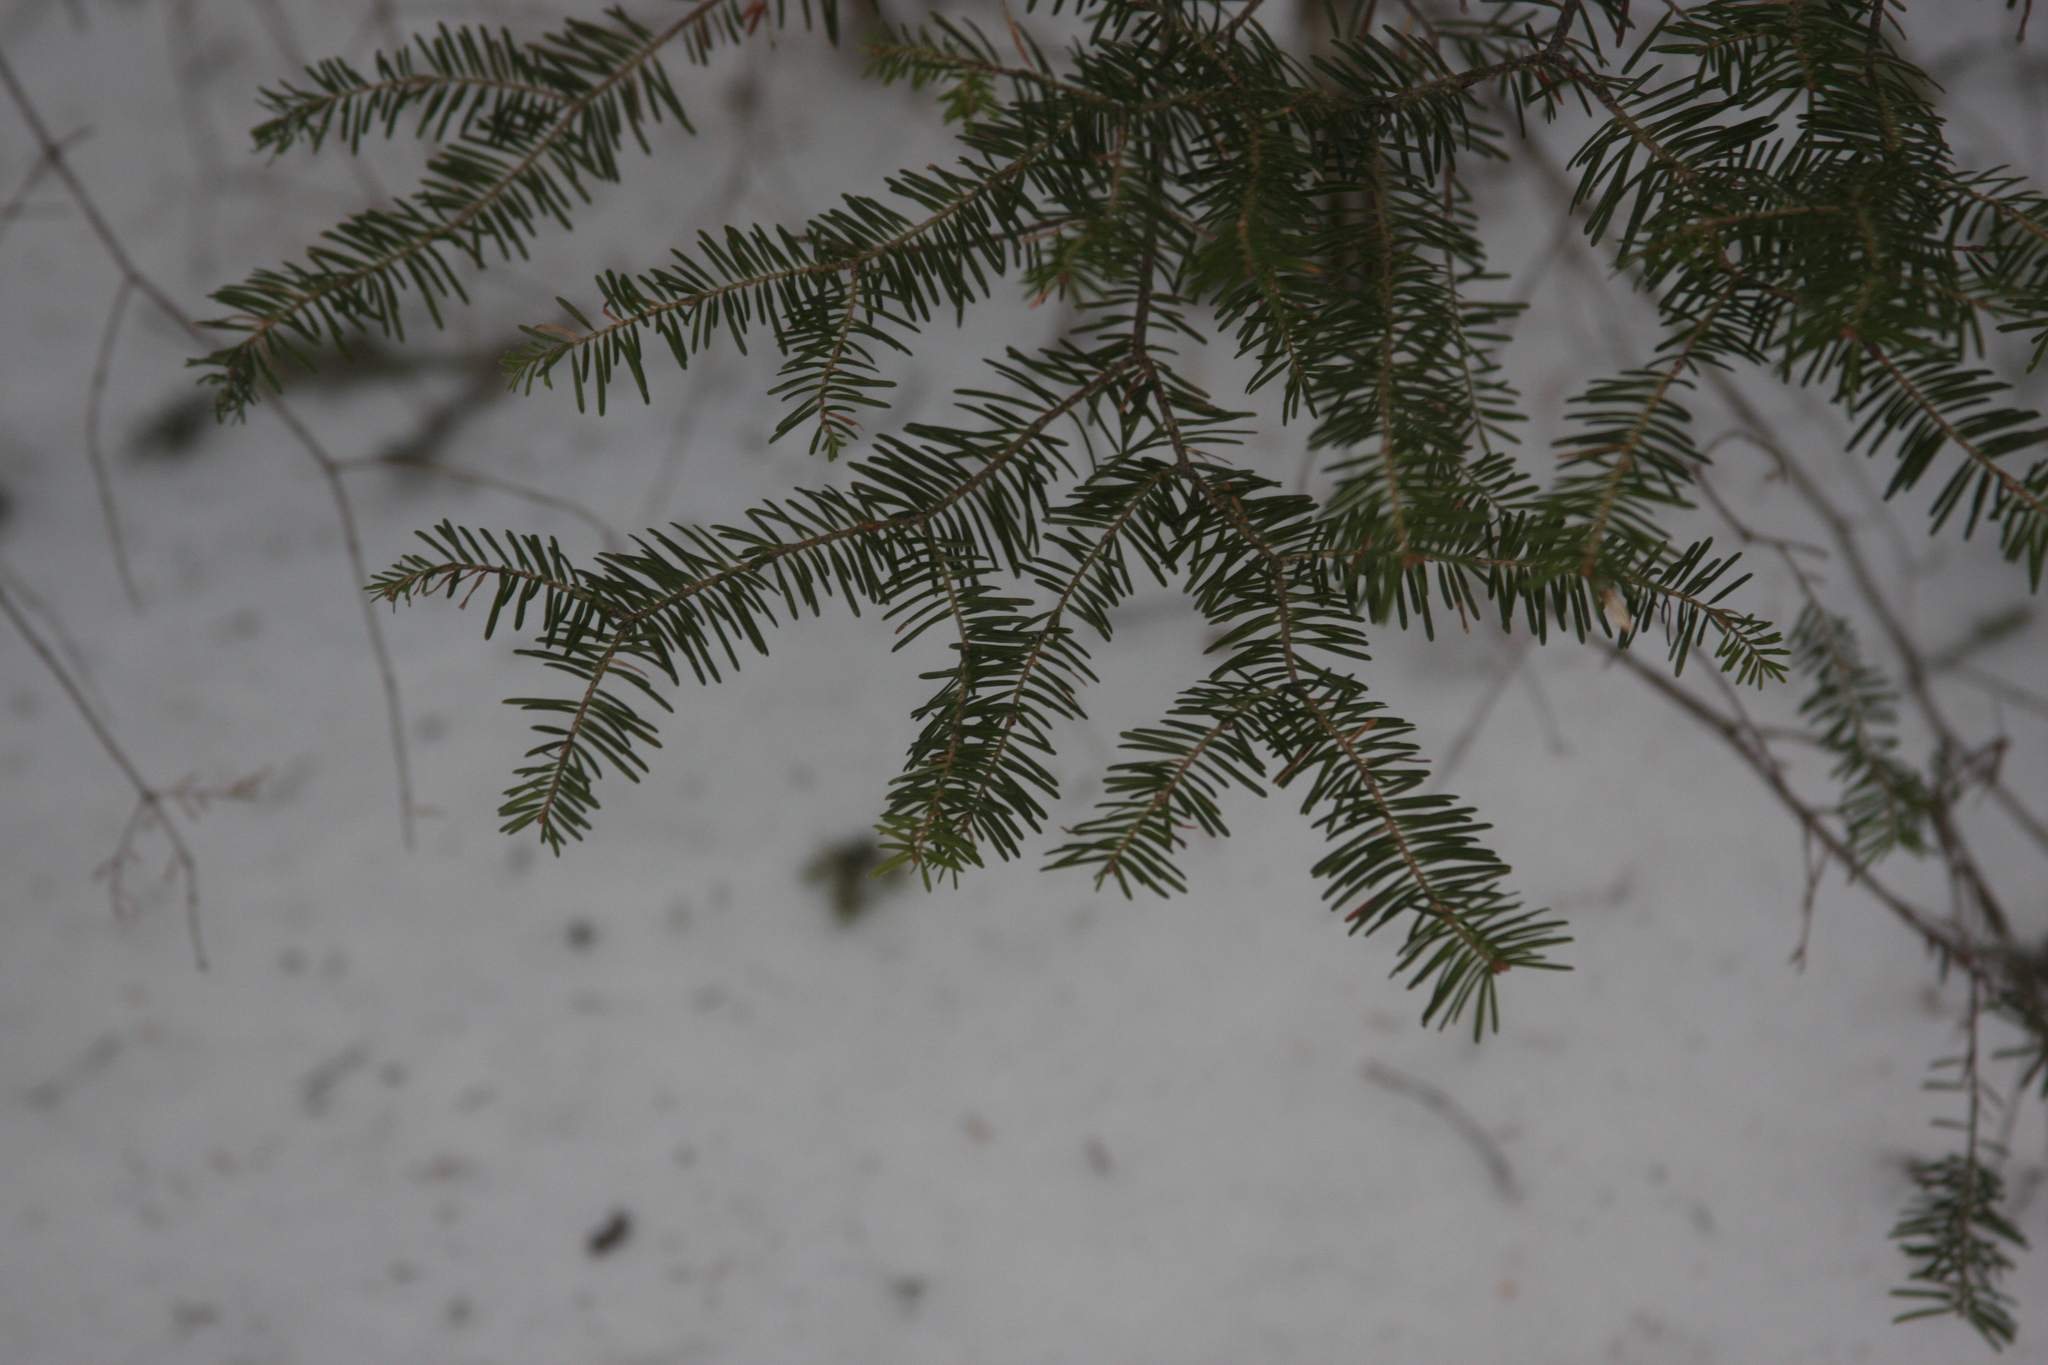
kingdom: Plantae
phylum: Tracheophyta
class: Pinopsida
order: Pinales
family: Pinaceae
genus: Abies
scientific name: Abies balsamea
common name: Balsam fir
